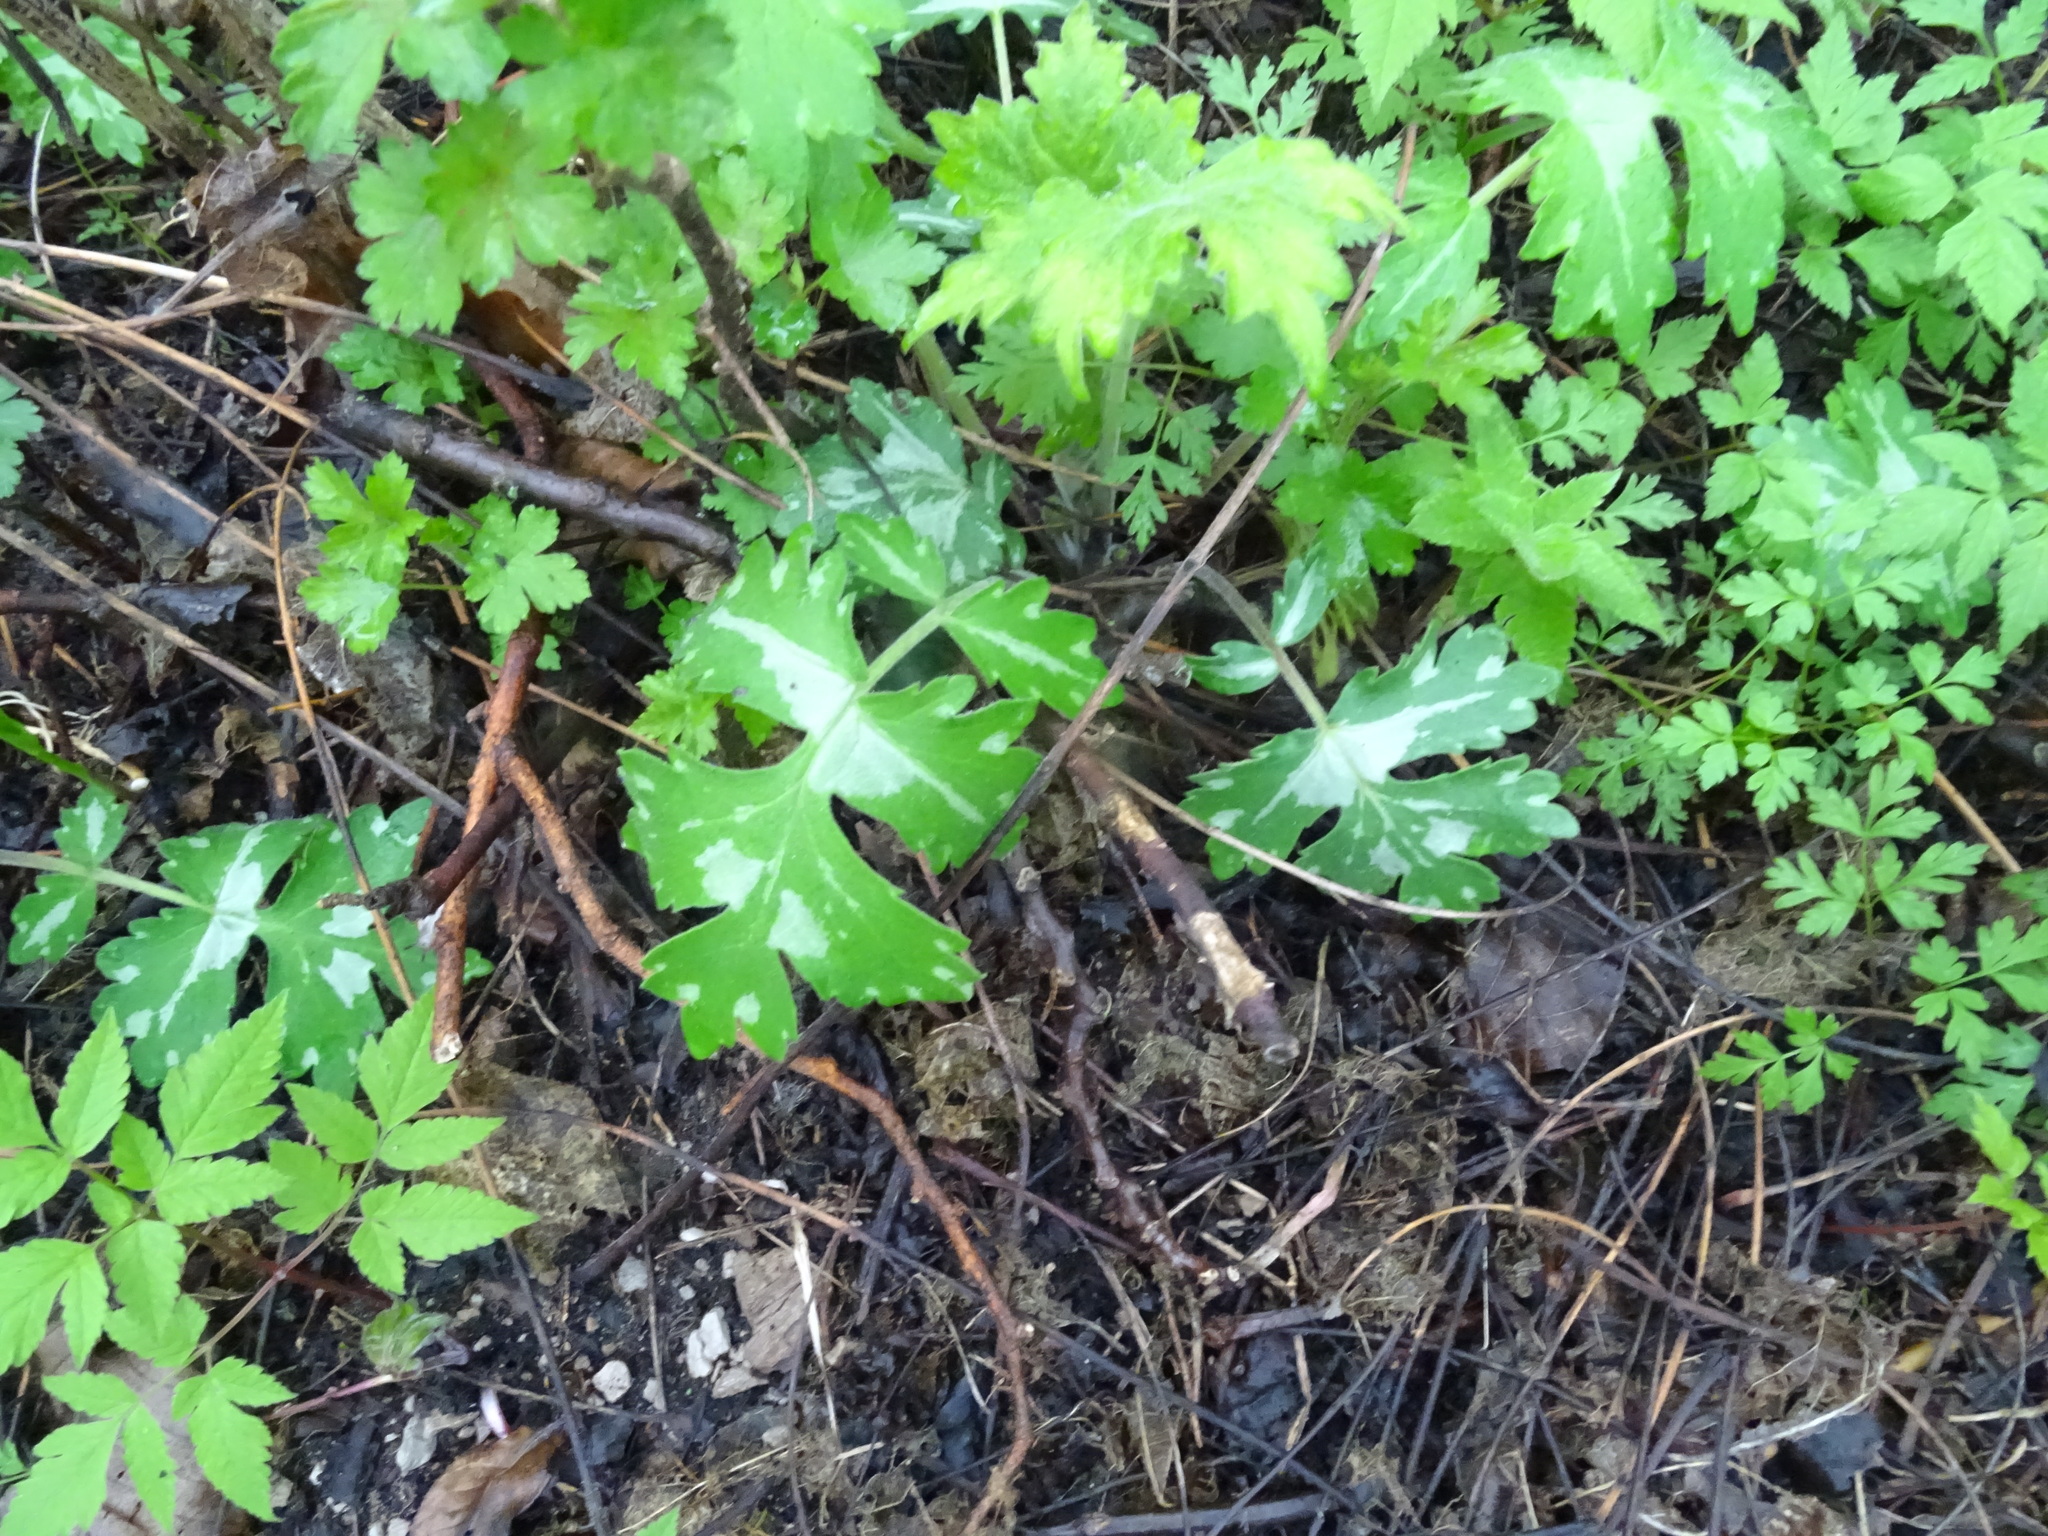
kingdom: Plantae
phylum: Tracheophyta
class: Magnoliopsida
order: Boraginales
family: Hydrophyllaceae
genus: Hydrophyllum
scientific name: Hydrophyllum virginianum
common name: Virginia waterleaf
